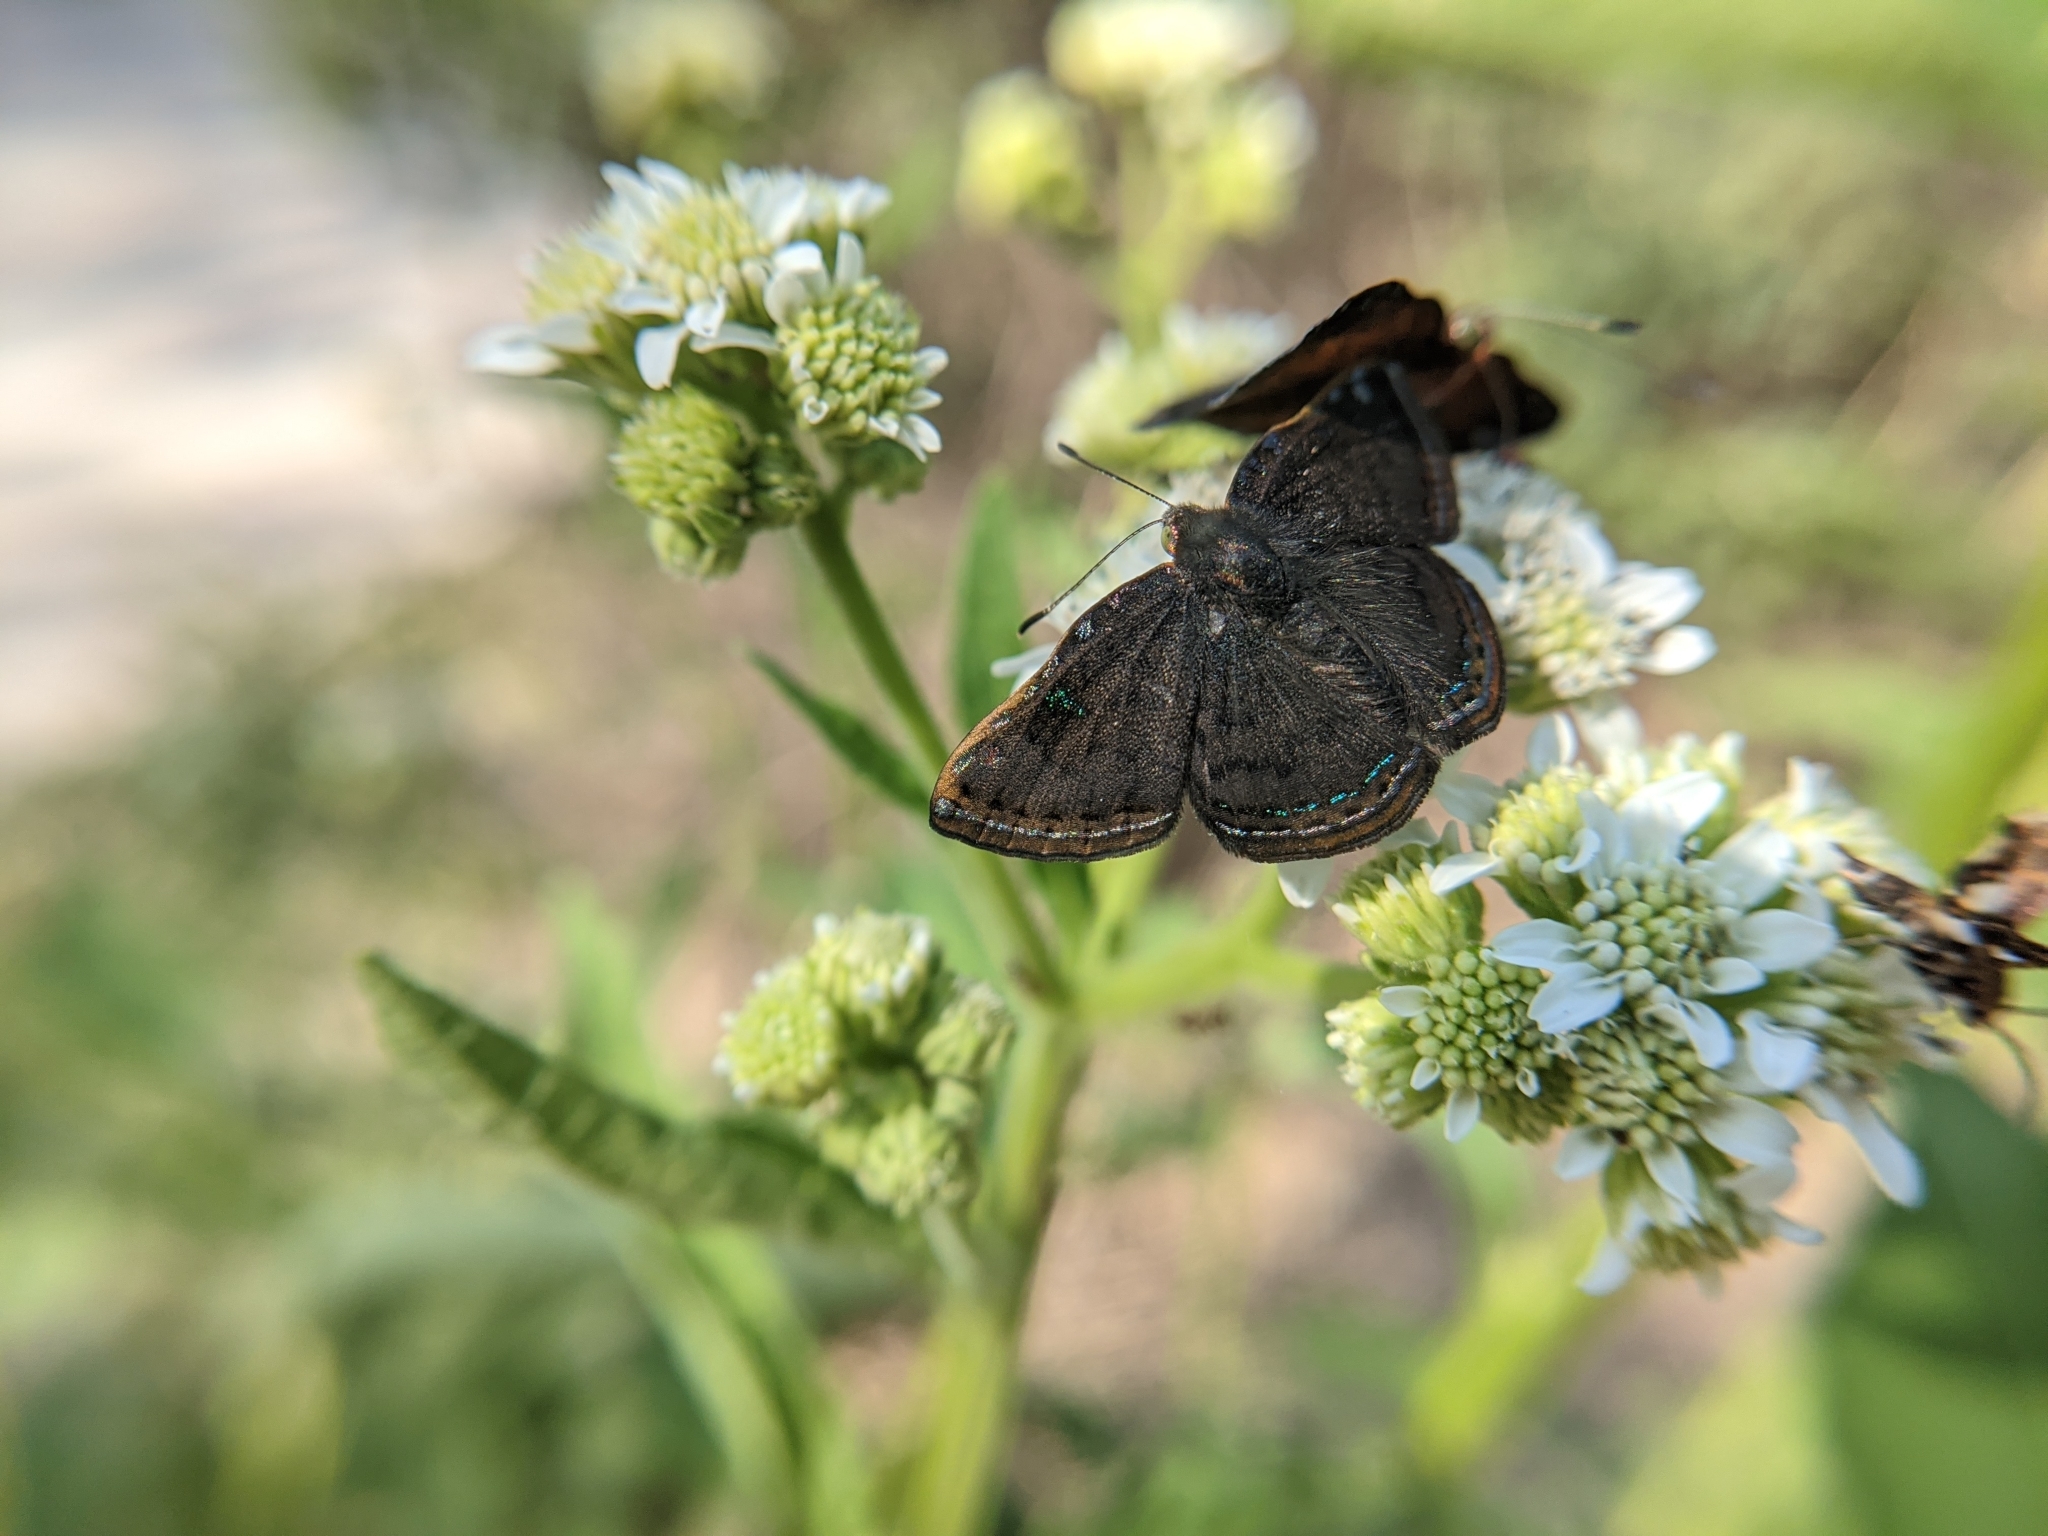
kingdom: Animalia
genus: Caria
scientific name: Caria ino
